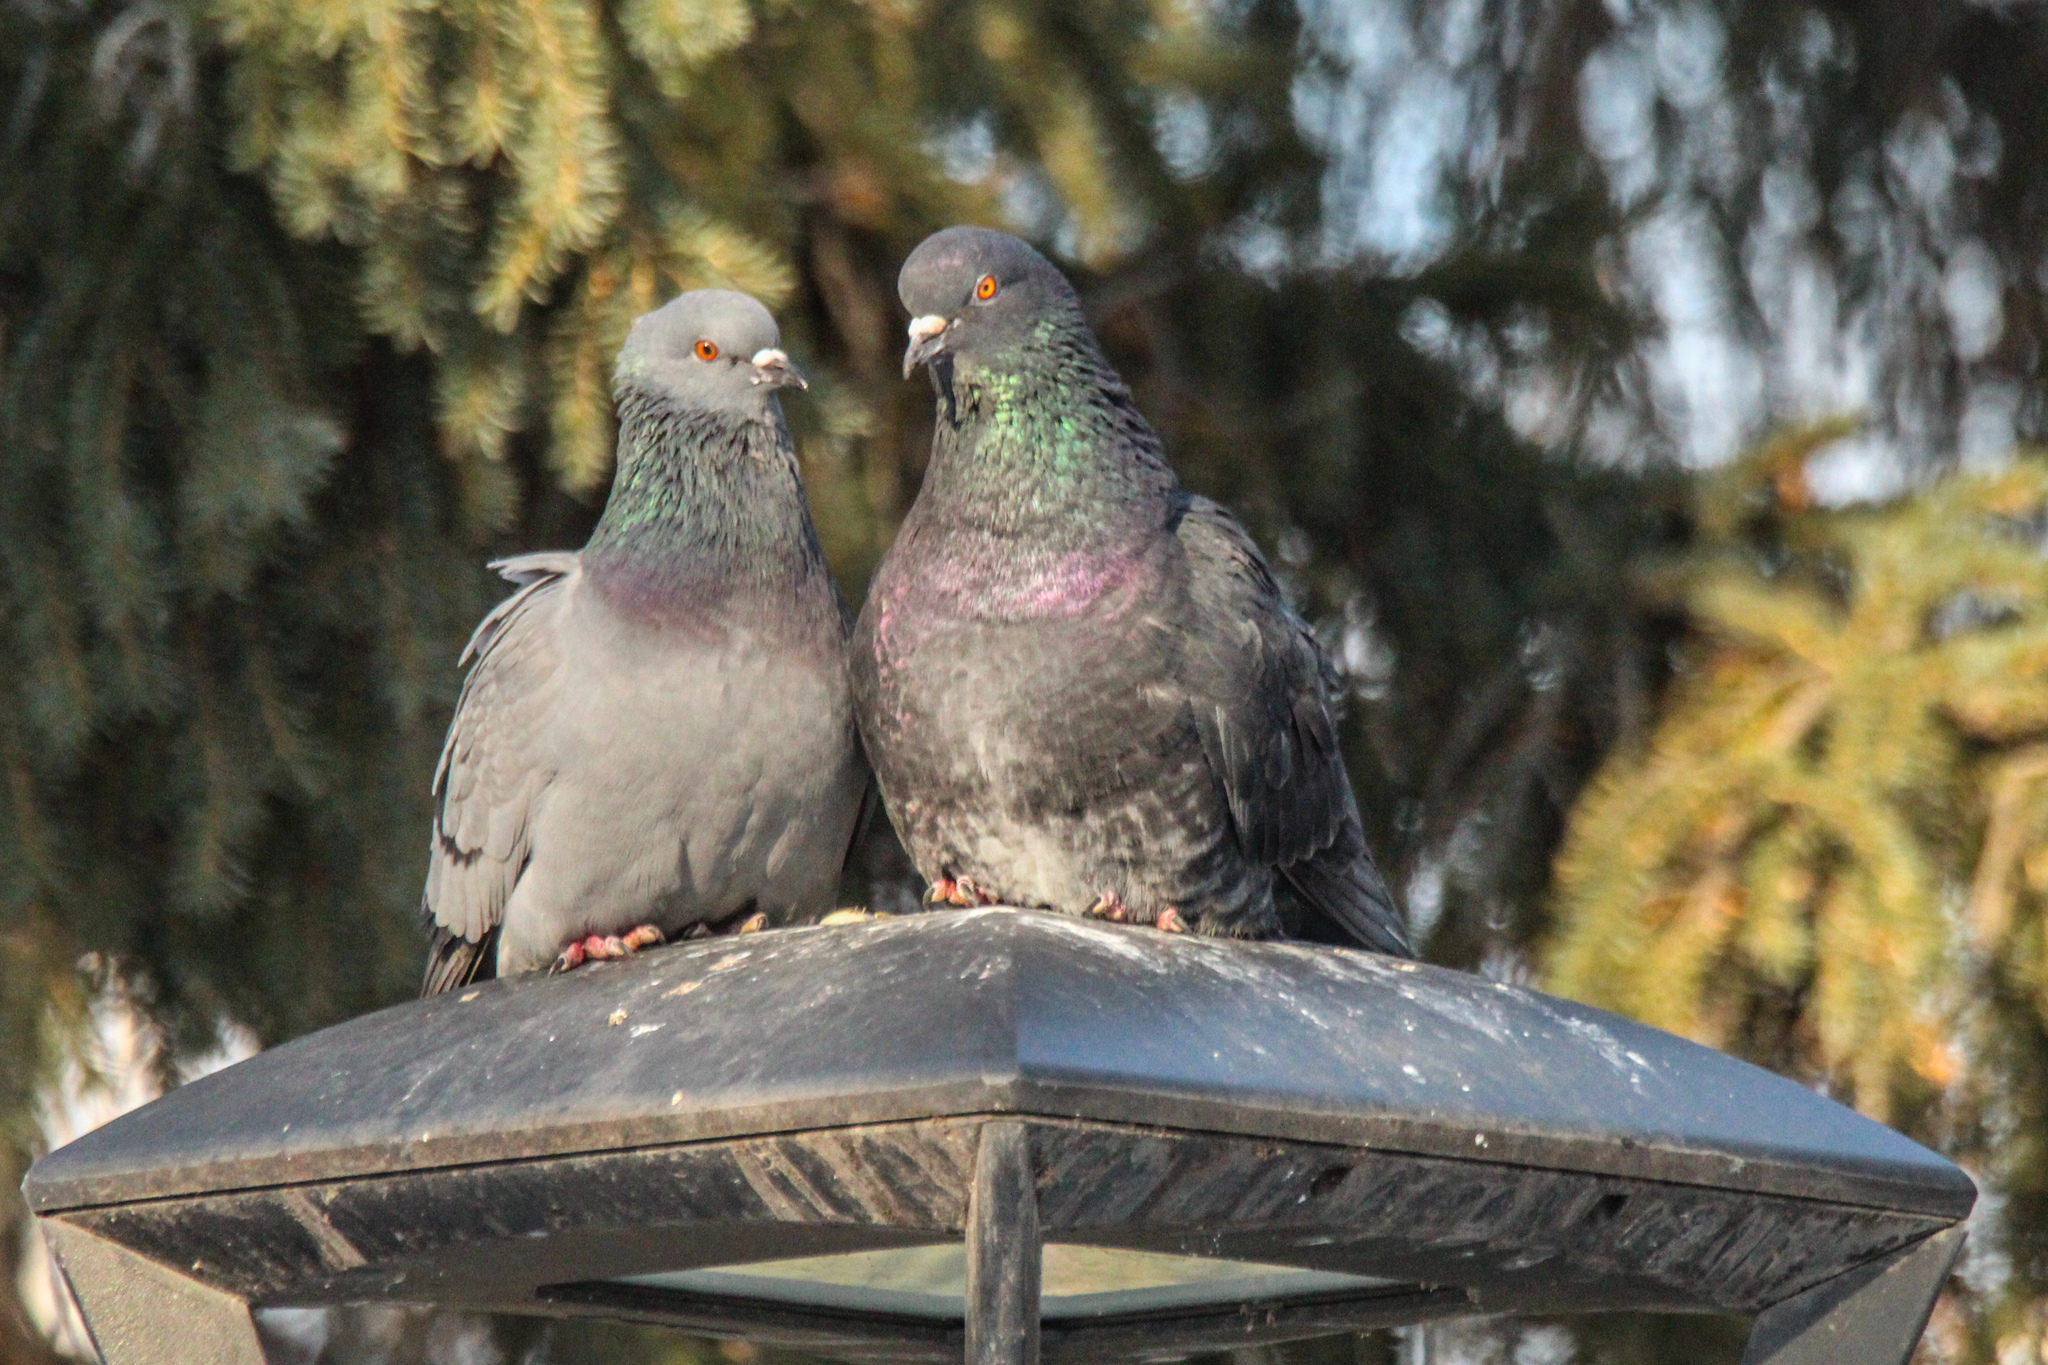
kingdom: Animalia
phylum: Chordata
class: Aves
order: Columbiformes
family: Columbidae
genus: Columba
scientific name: Columba livia
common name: Rock pigeon
